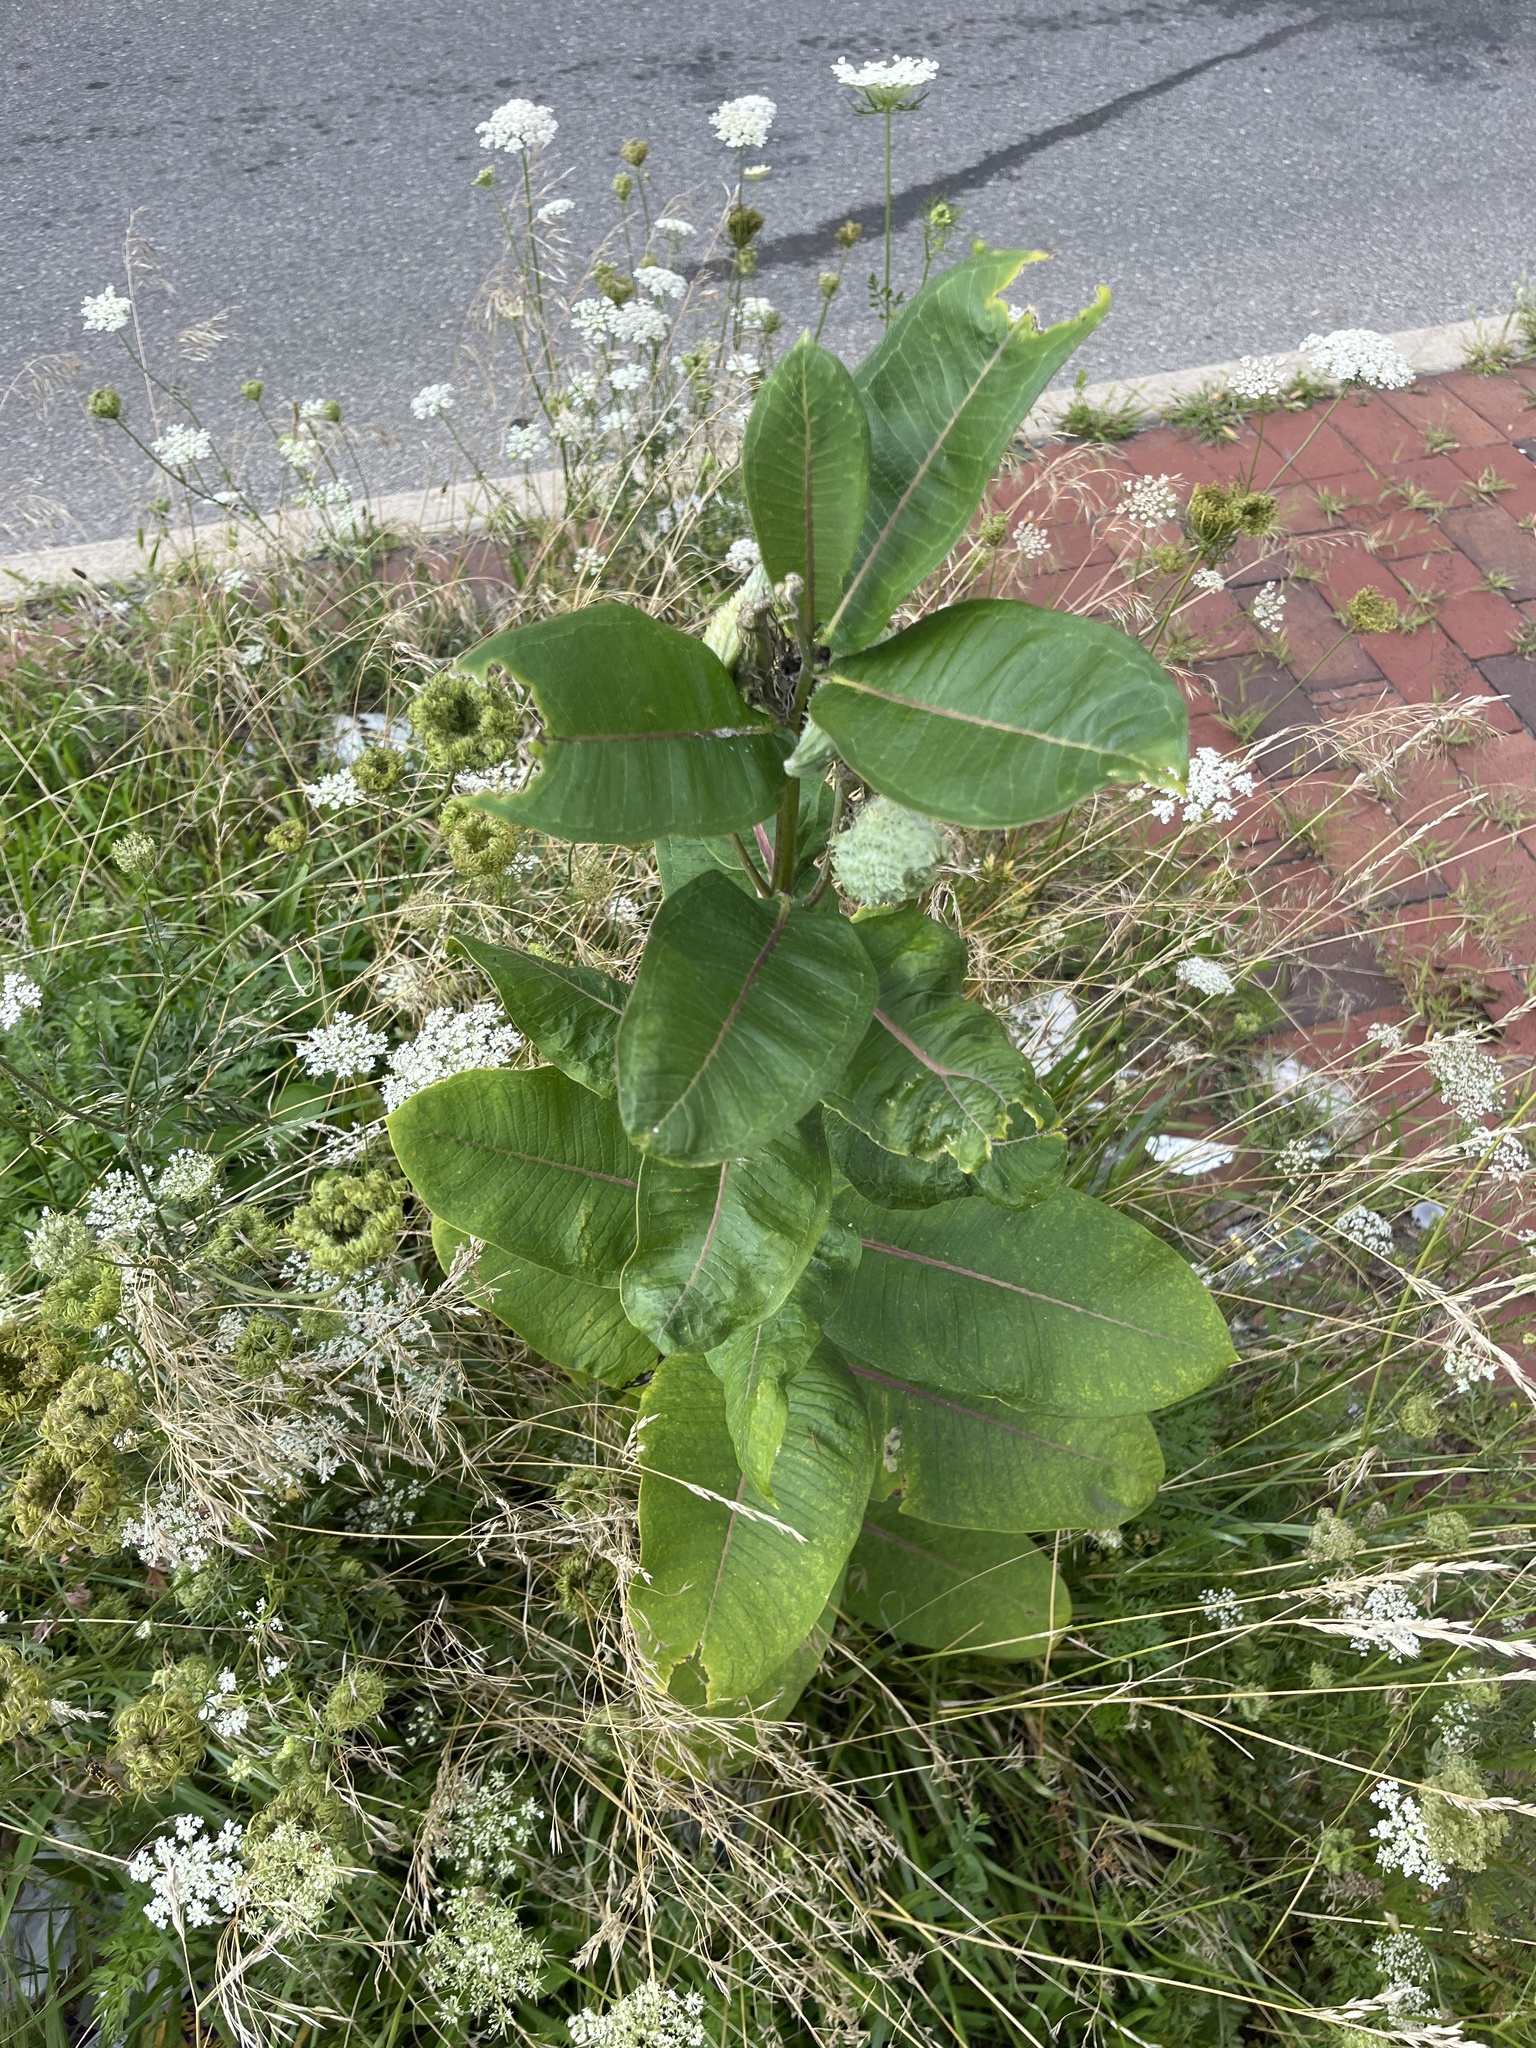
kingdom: Plantae
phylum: Tracheophyta
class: Magnoliopsida
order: Gentianales
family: Apocynaceae
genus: Asclepias
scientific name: Asclepias syriaca
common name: Common milkweed
